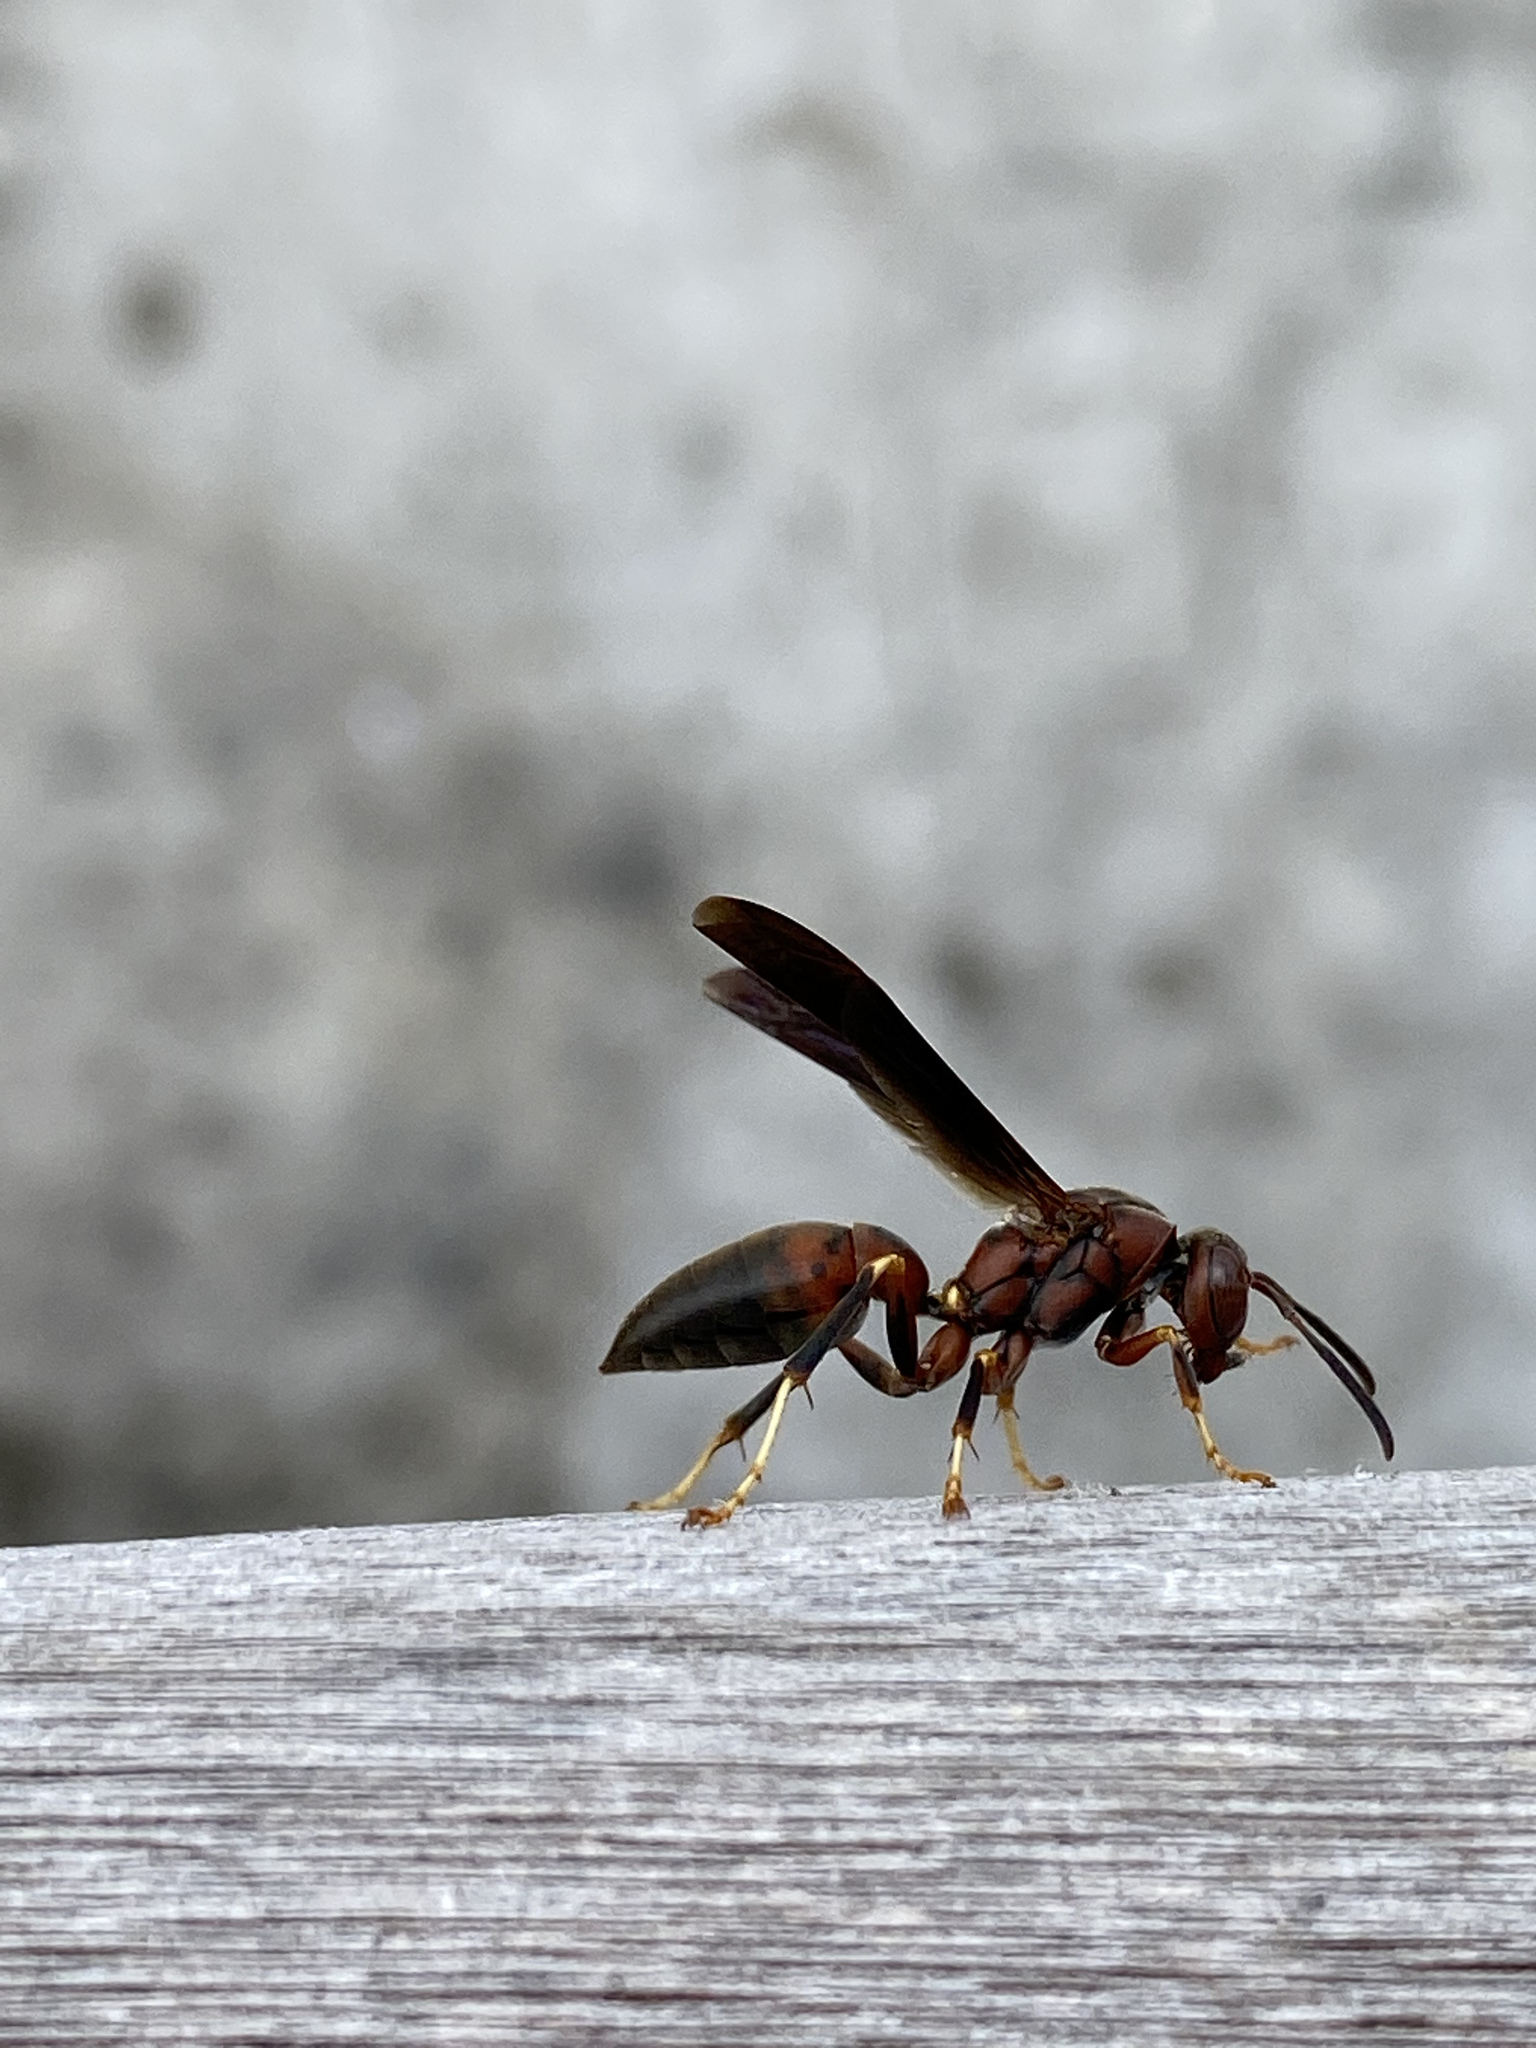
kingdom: Animalia
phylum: Arthropoda
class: Insecta
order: Hymenoptera
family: Eumenidae
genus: Polistes
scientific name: Polistes metricus
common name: Metric paper wasp
